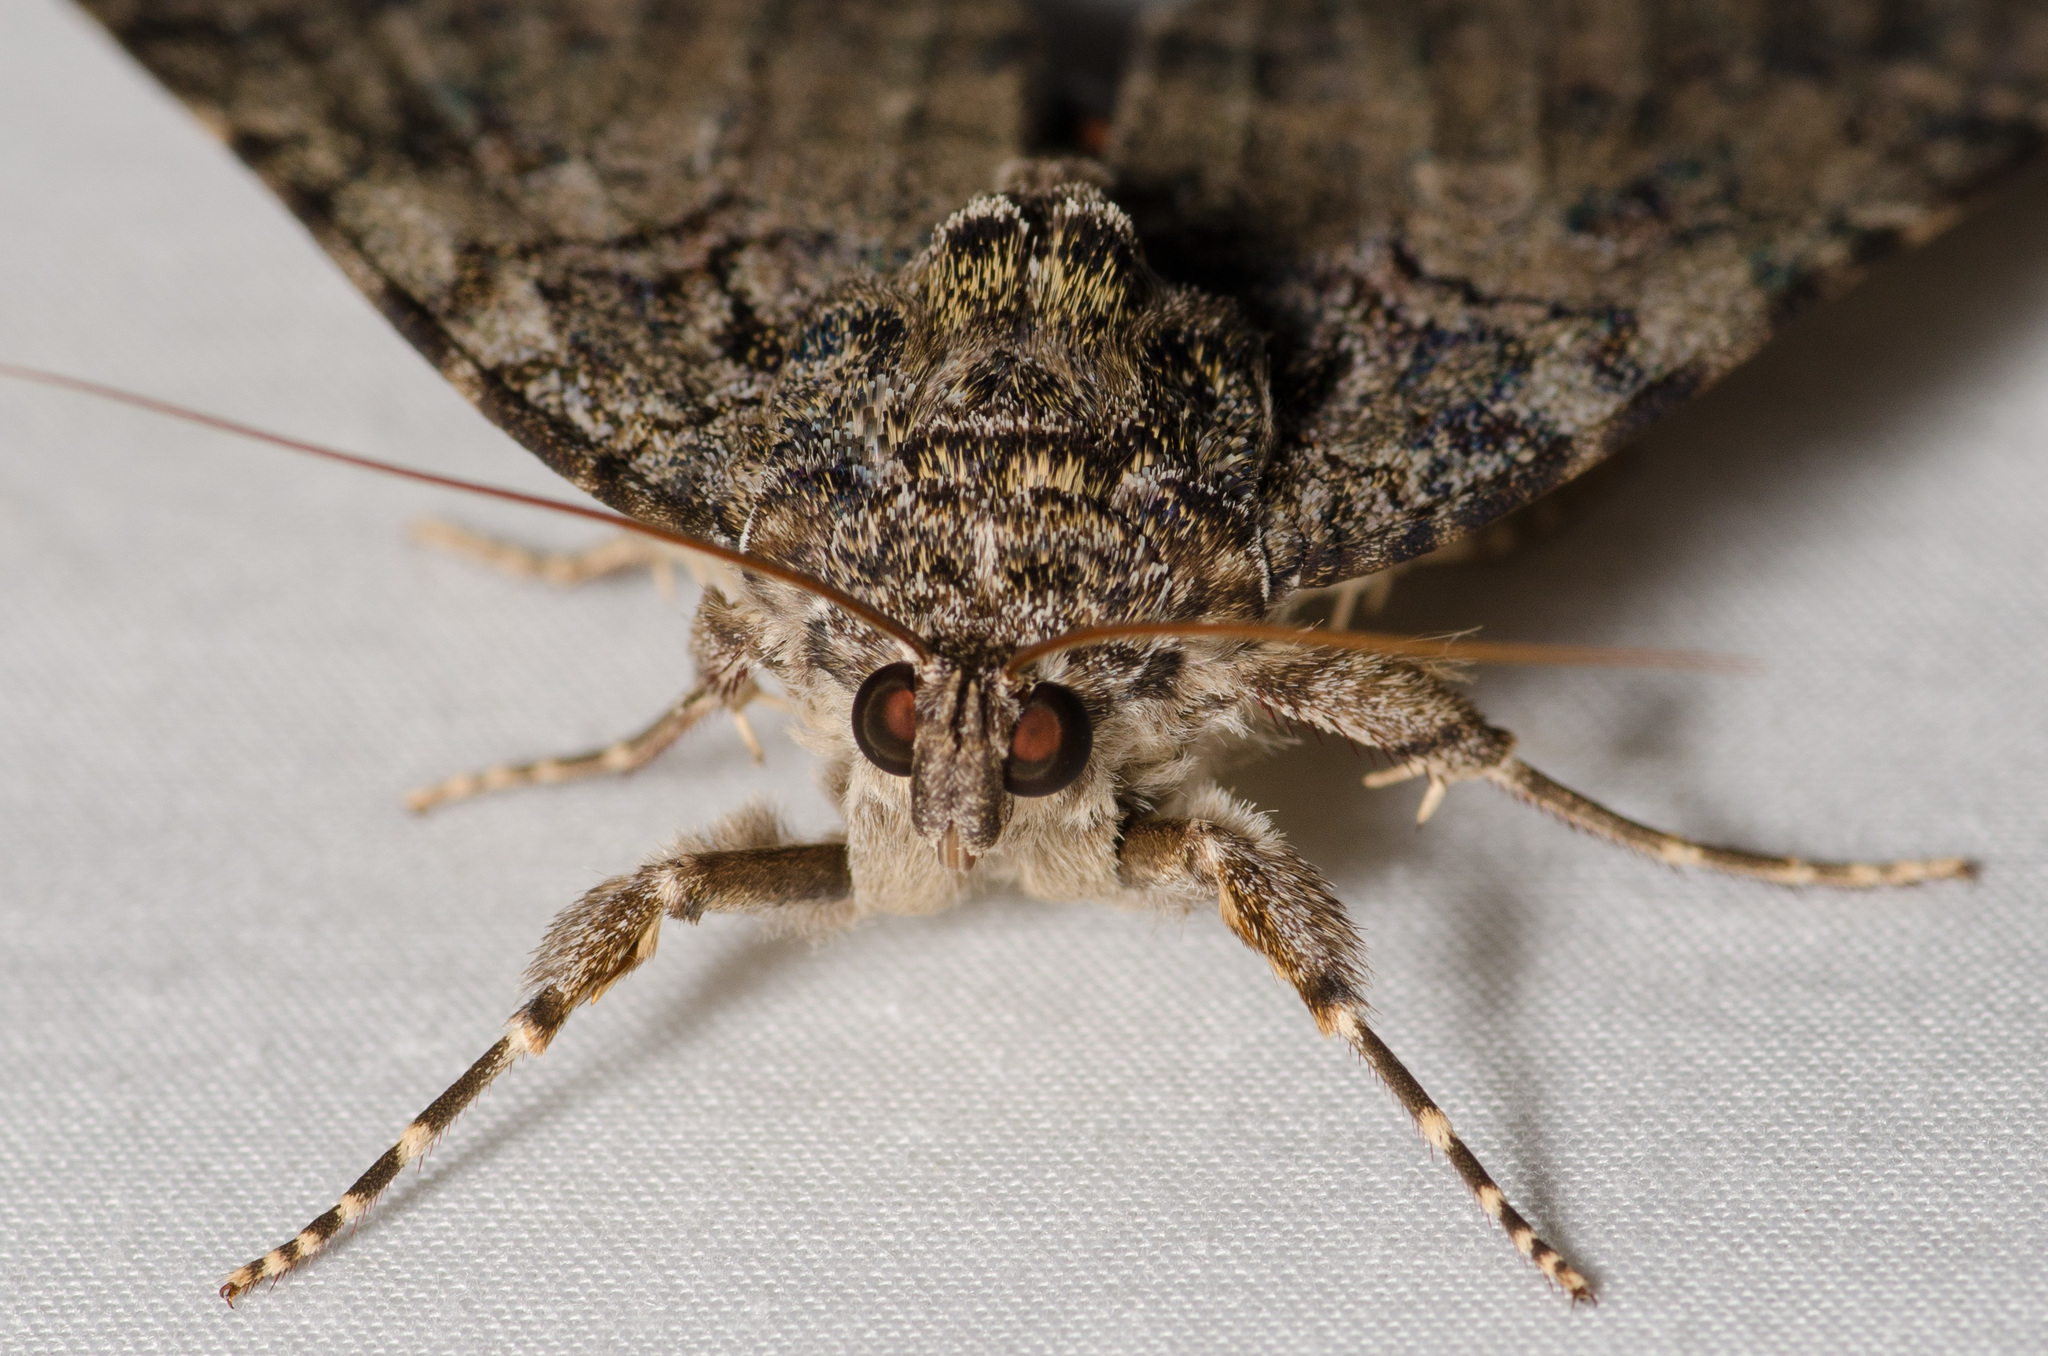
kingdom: Animalia
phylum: Arthropoda
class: Insecta
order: Lepidoptera
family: Erebidae
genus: Catocala
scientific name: Catocala umbrosa
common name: Umber underwing
